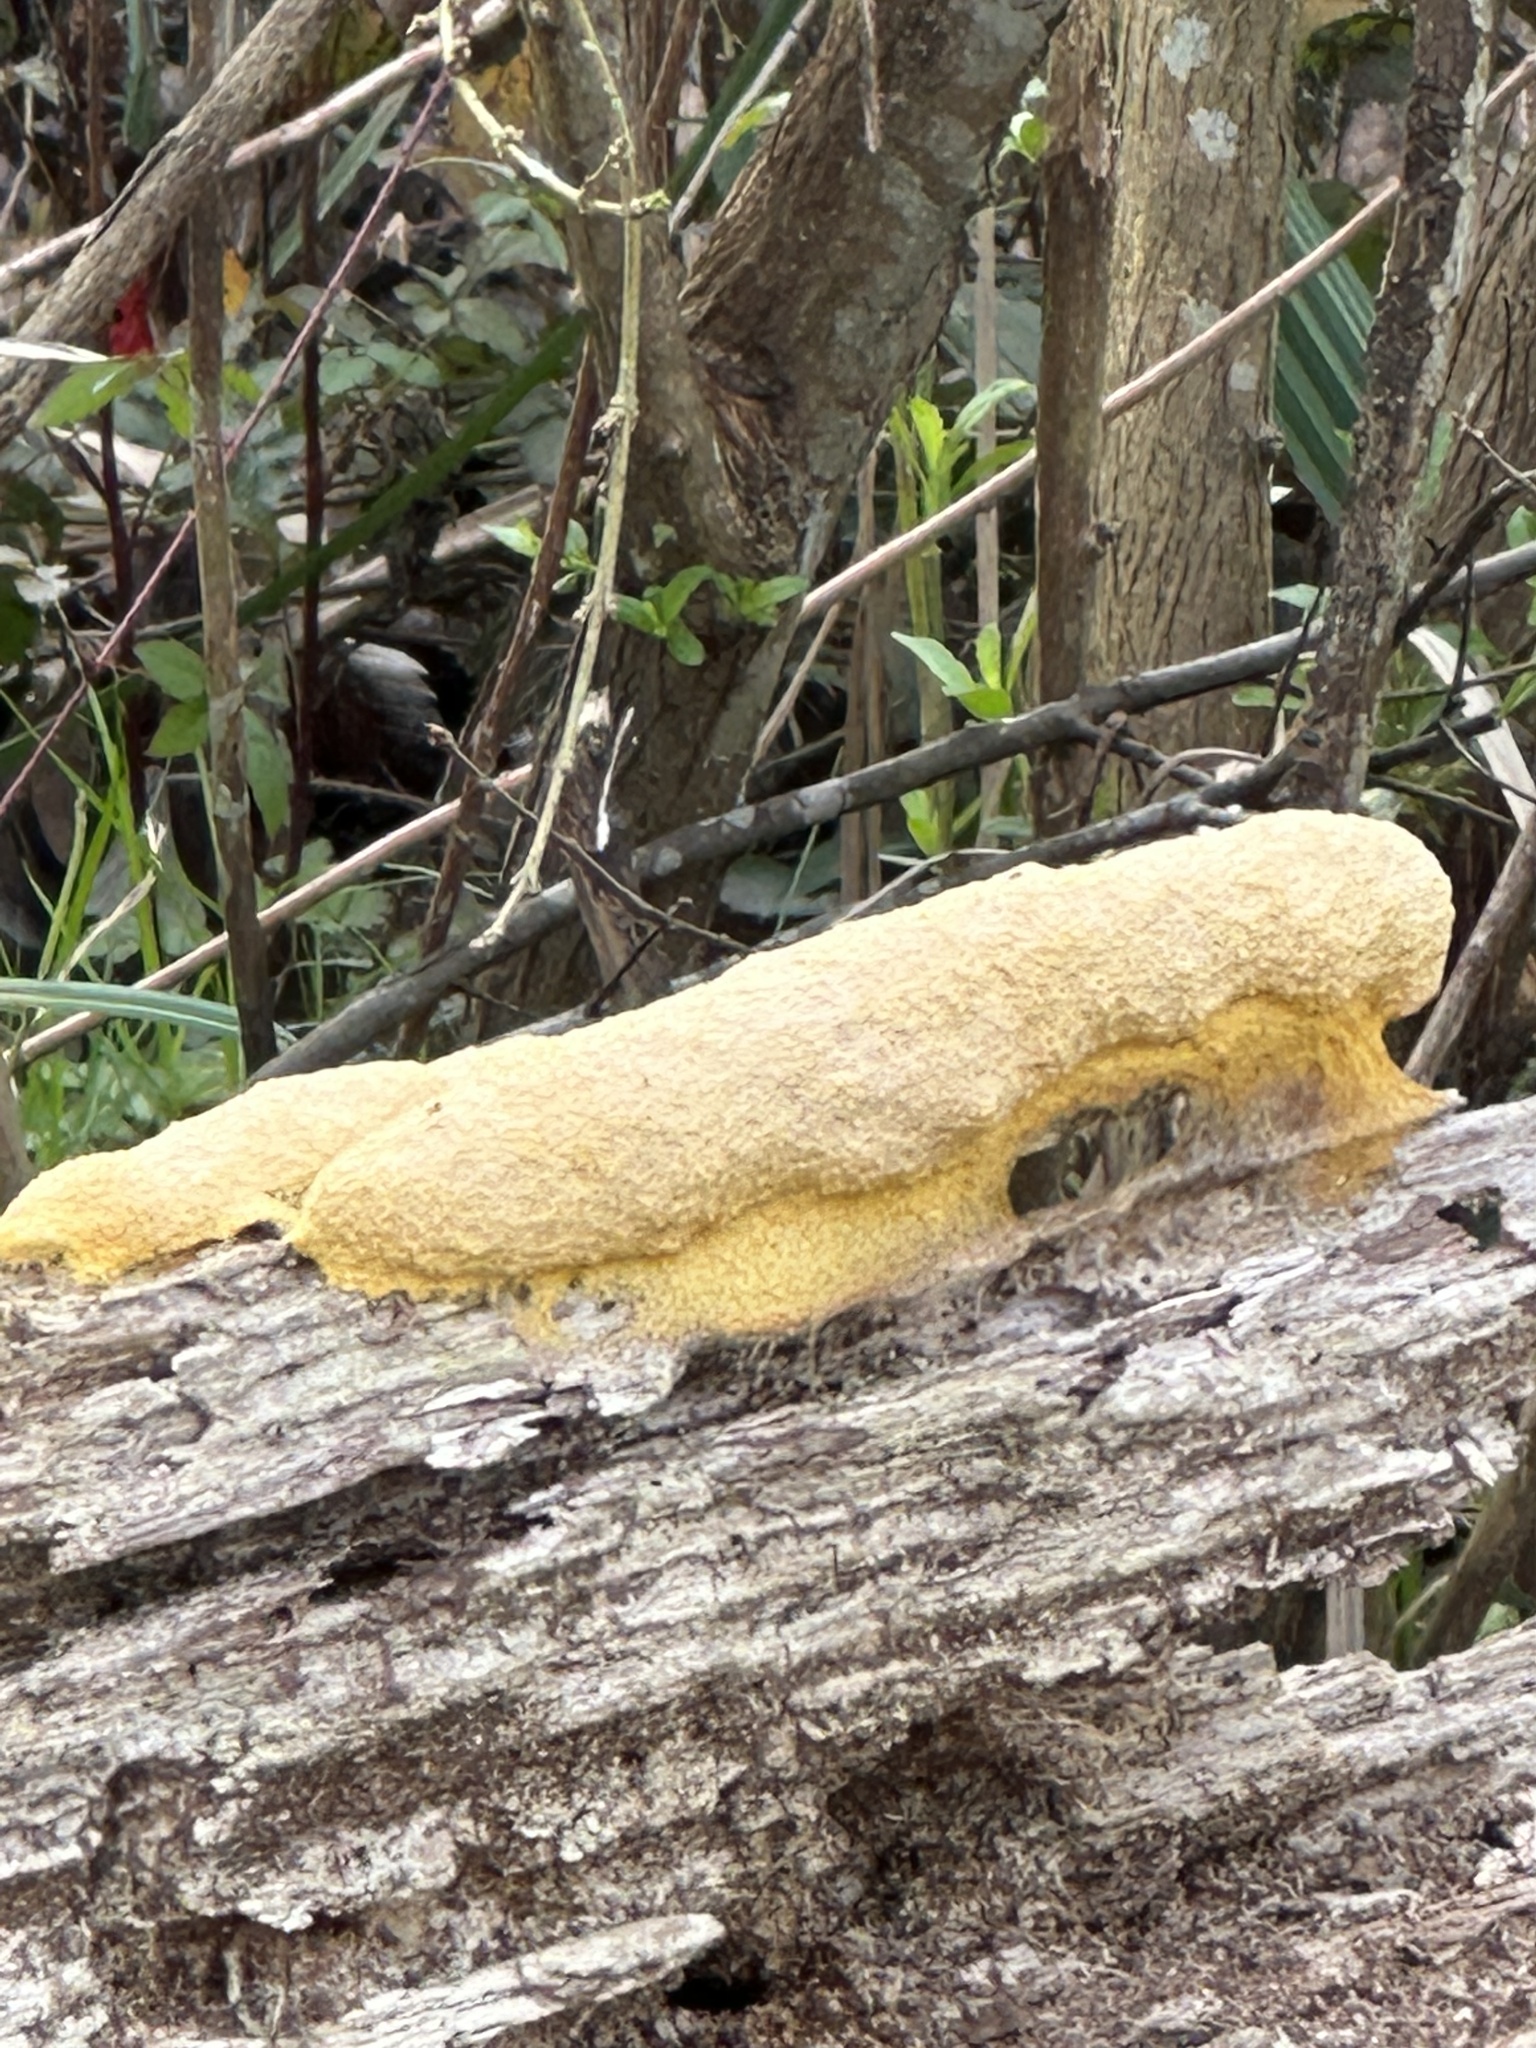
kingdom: Protozoa
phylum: Mycetozoa
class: Myxomycetes
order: Physarales
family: Physaraceae
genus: Fuligo
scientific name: Fuligo septica
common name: Dog vomit slime mold
